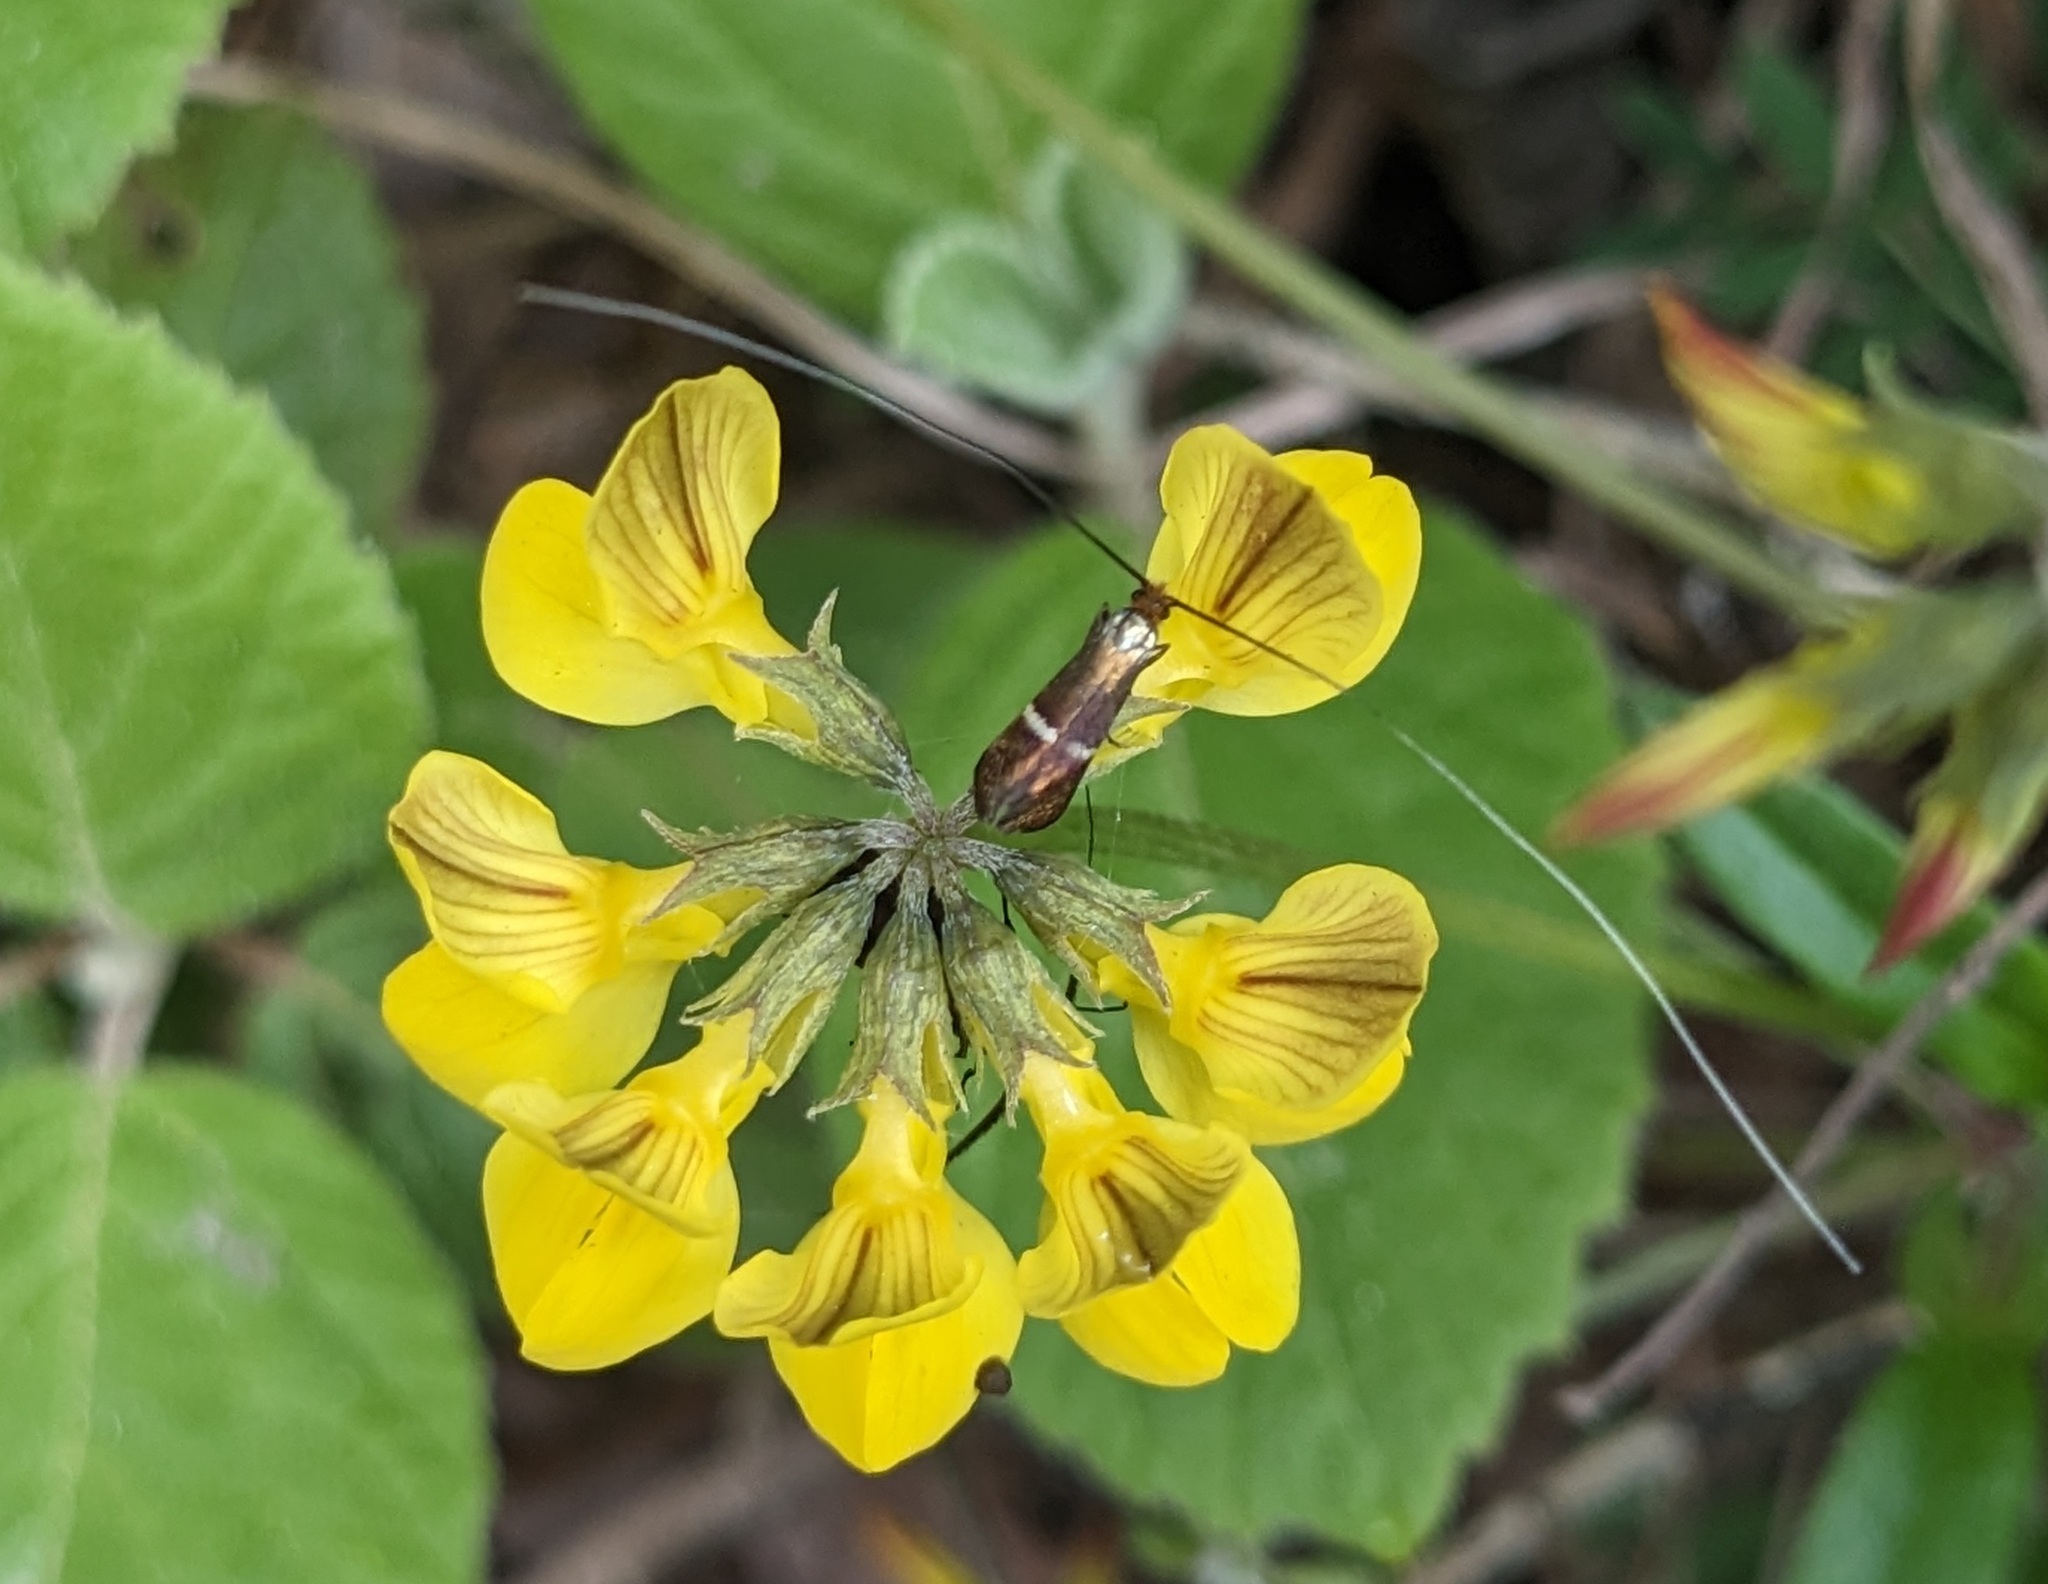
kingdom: Animalia
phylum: Arthropoda
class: Insecta
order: Lepidoptera
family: Adelidae
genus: Adela
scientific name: Adela australis
